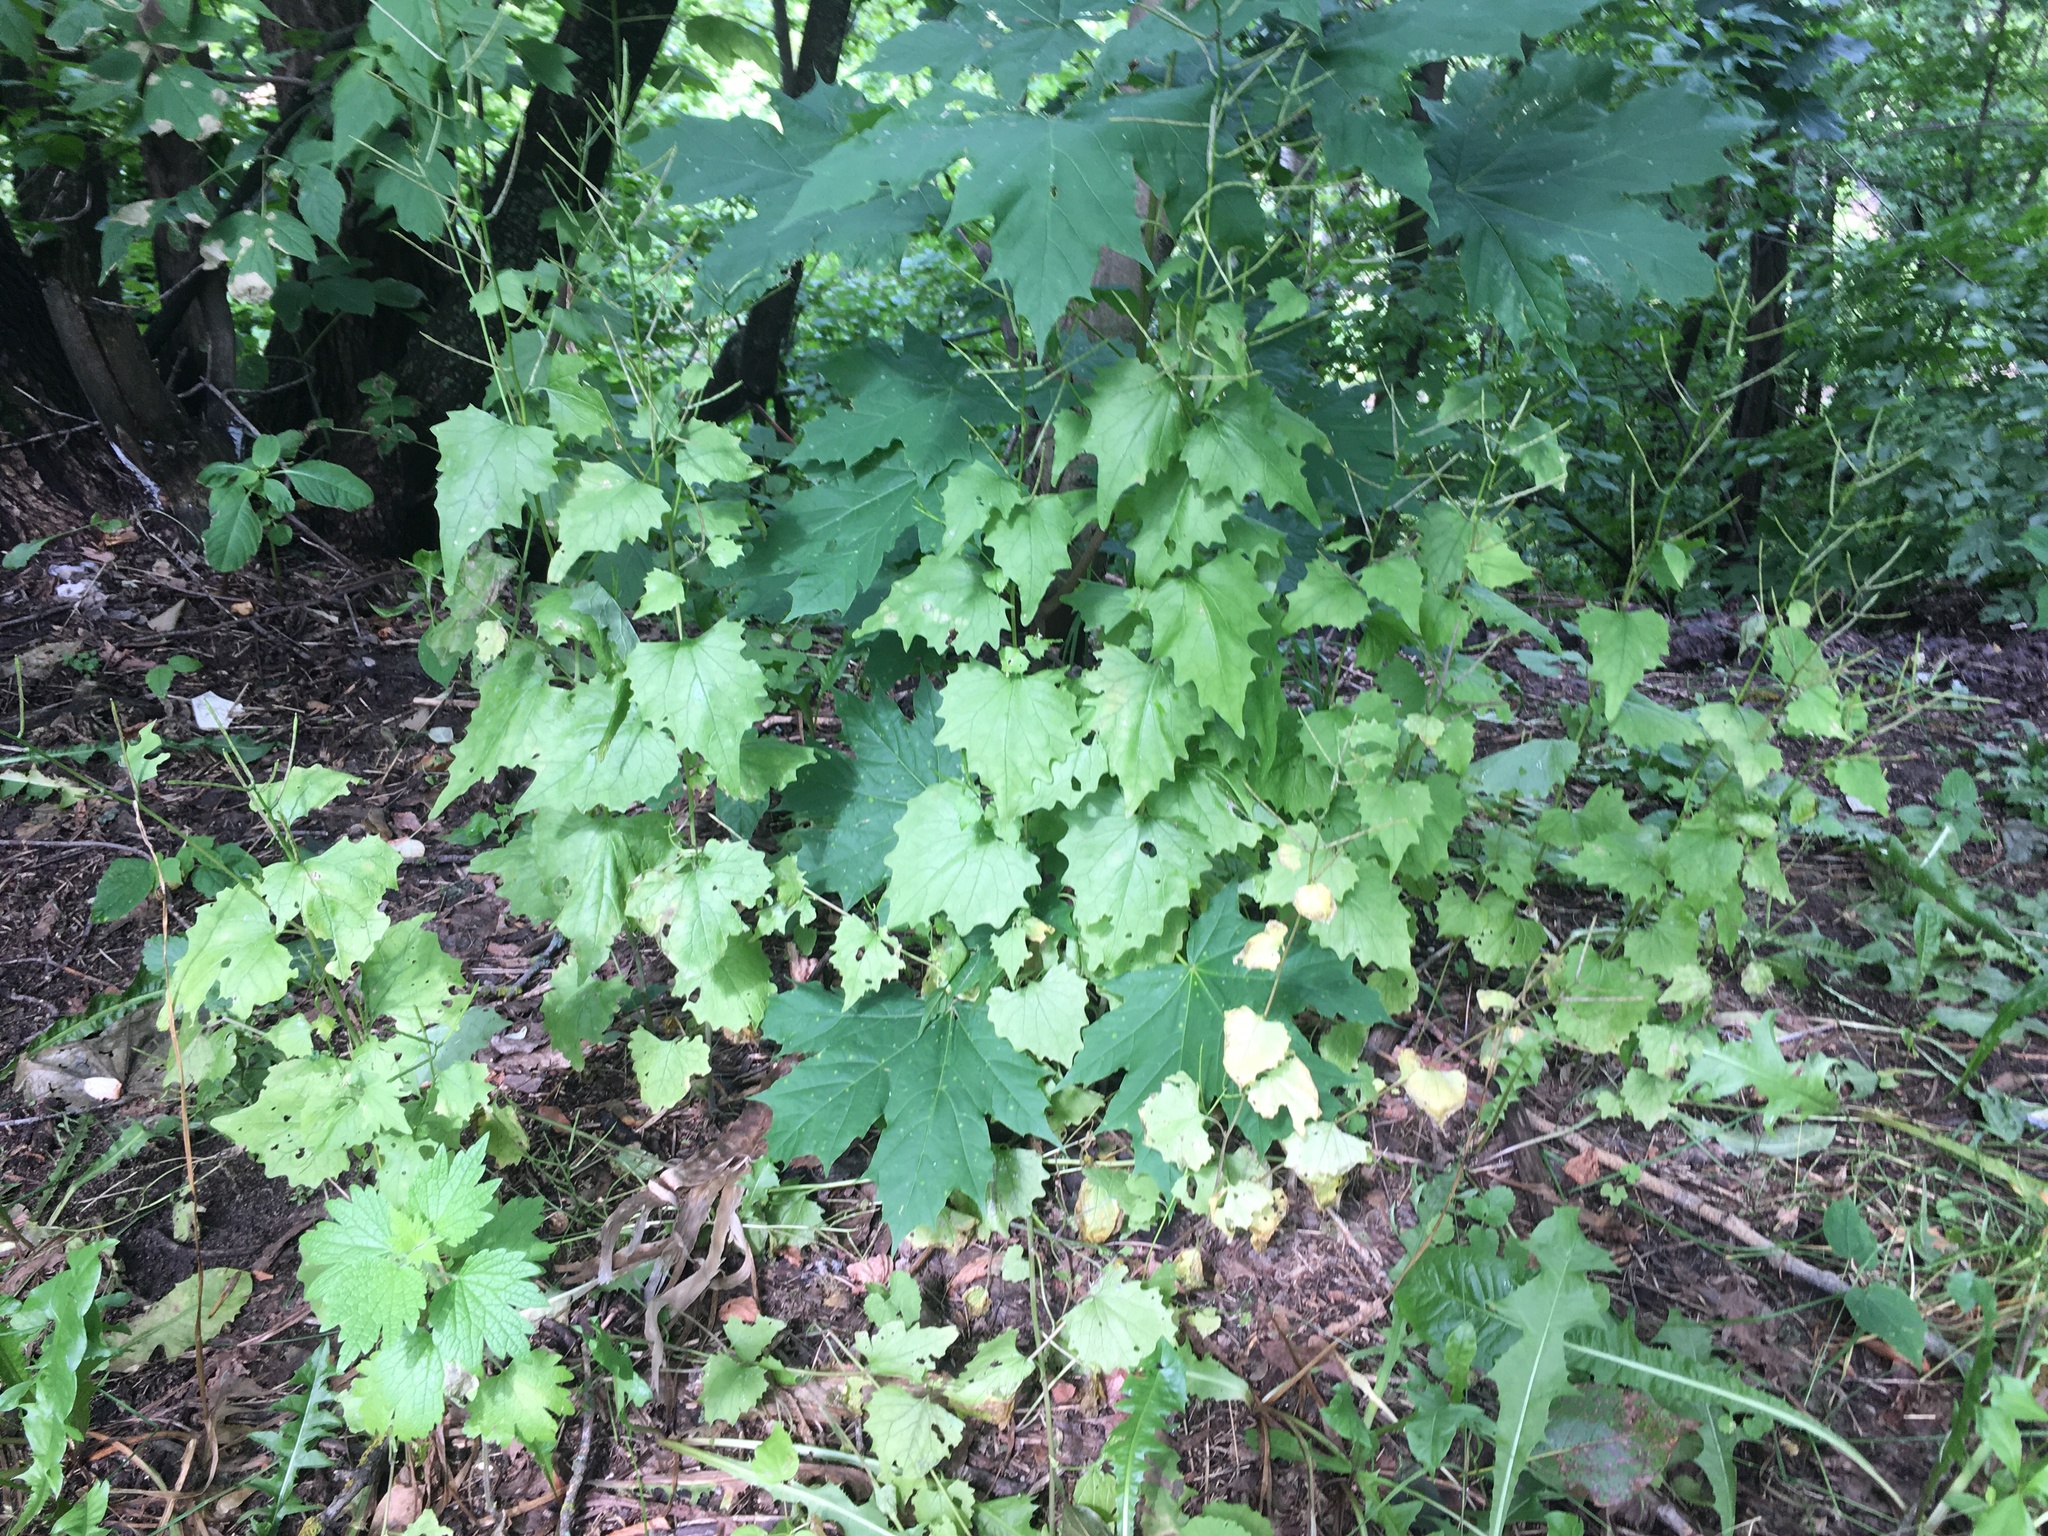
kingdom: Plantae
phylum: Tracheophyta
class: Magnoliopsida
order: Brassicales
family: Brassicaceae
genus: Alliaria
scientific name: Alliaria petiolata
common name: Garlic mustard
